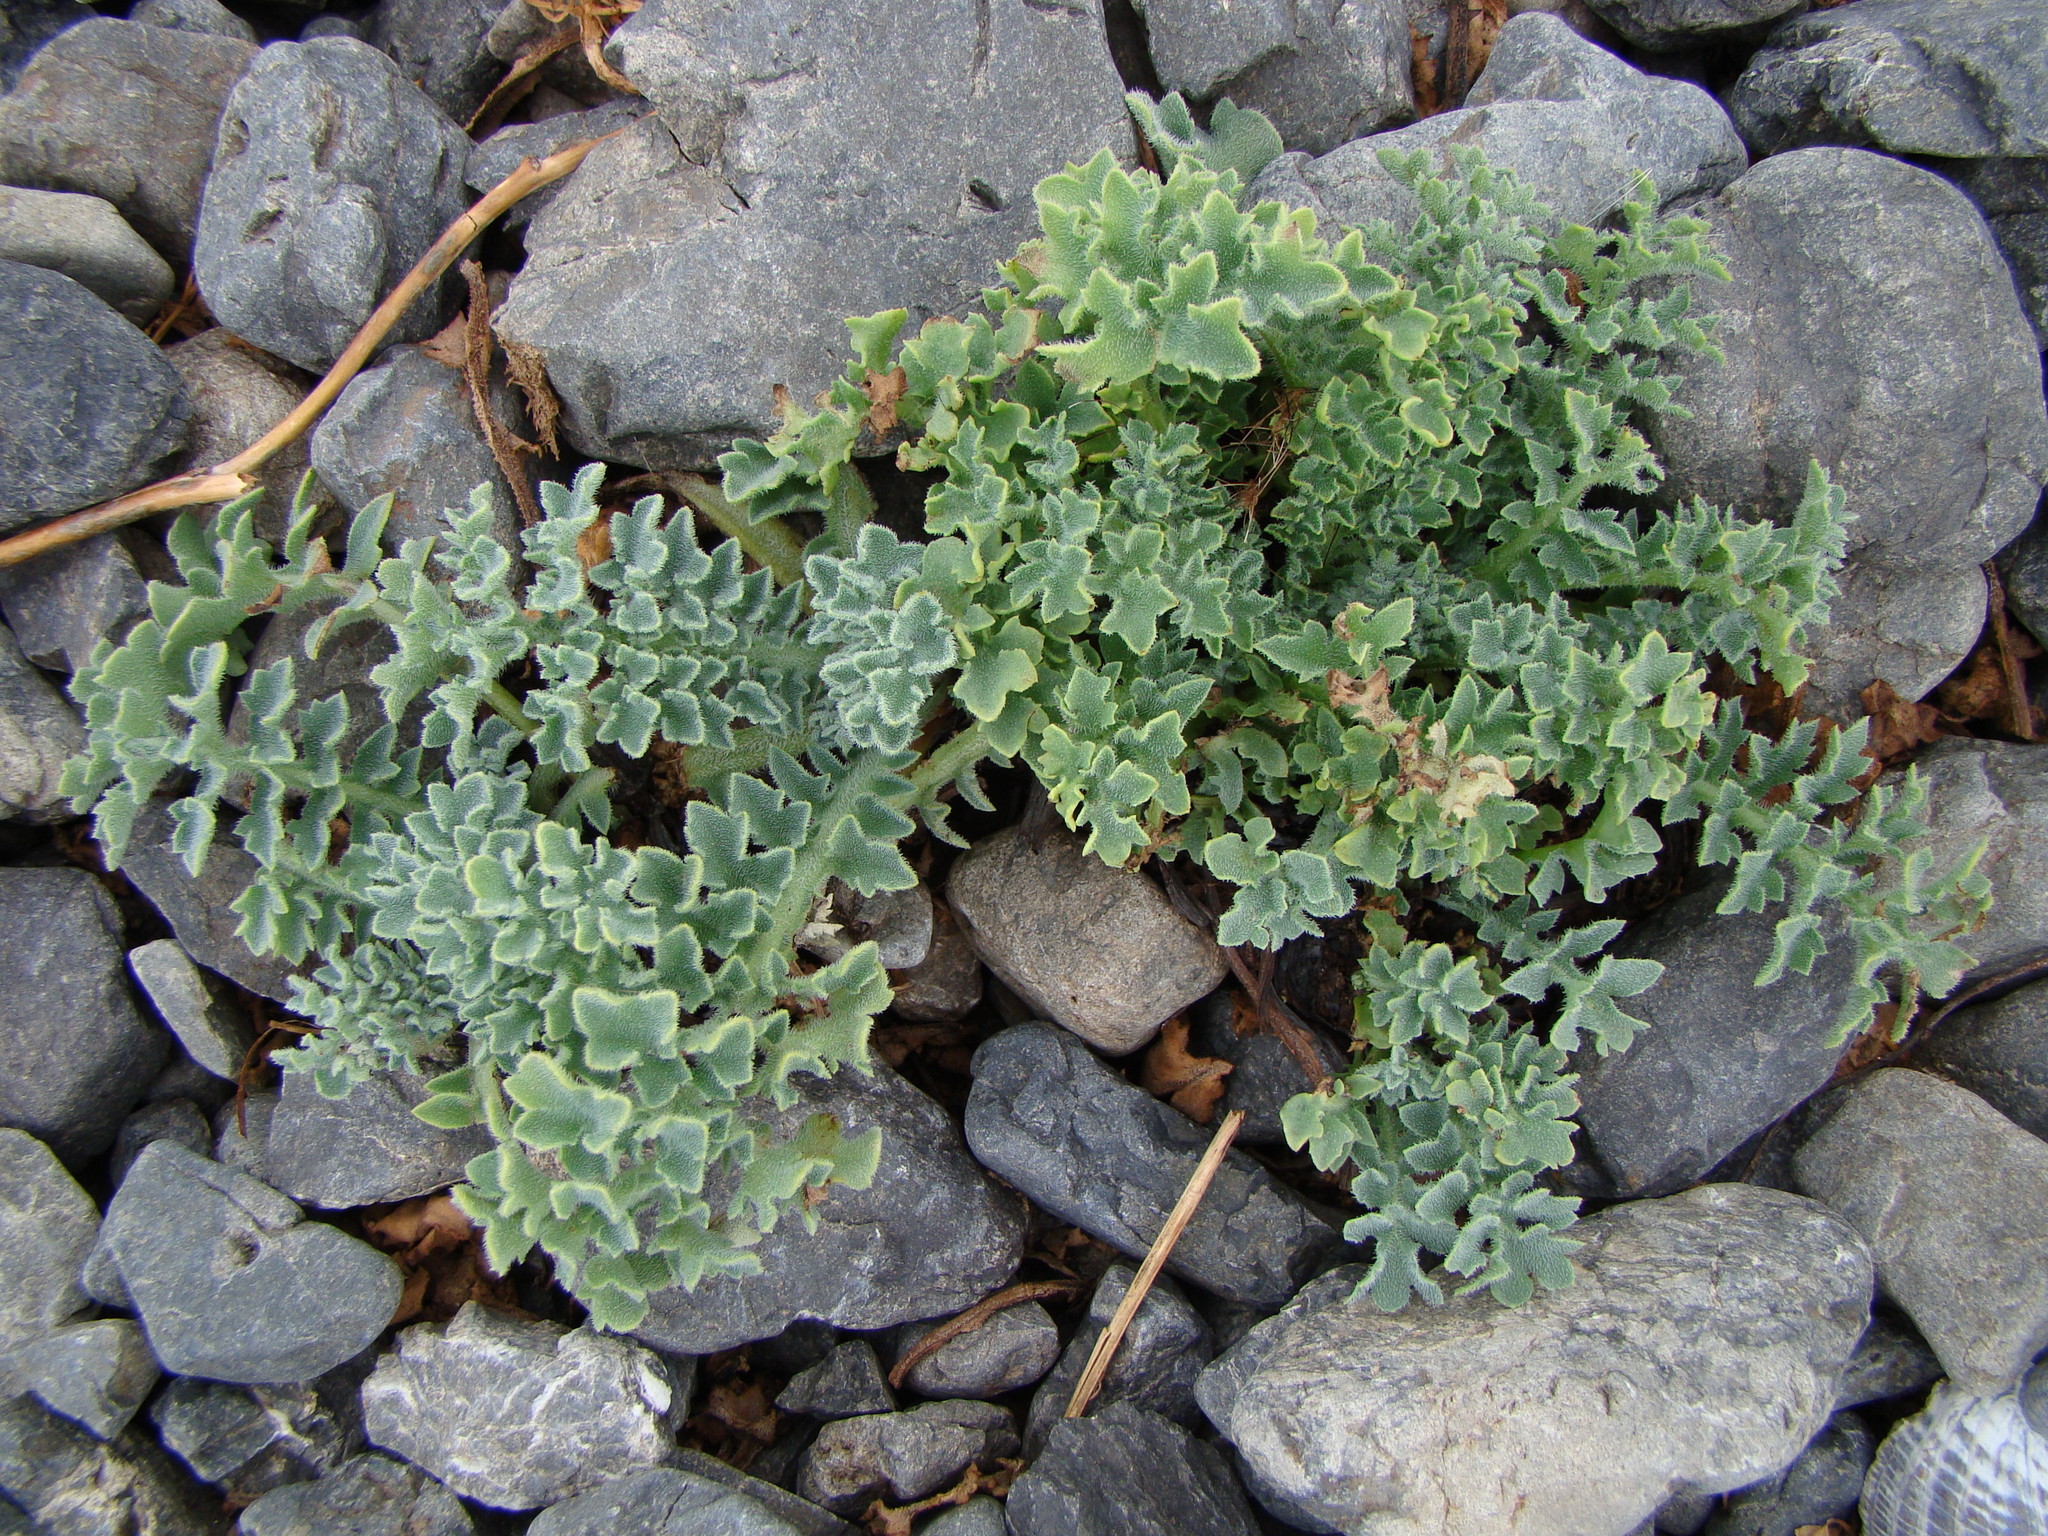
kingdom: Plantae
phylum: Tracheophyta
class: Magnoliopsida
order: Ranunculales
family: Papaveraceae
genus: Glaucium
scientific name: Glaucium flavum
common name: Yellow horned-poppy
